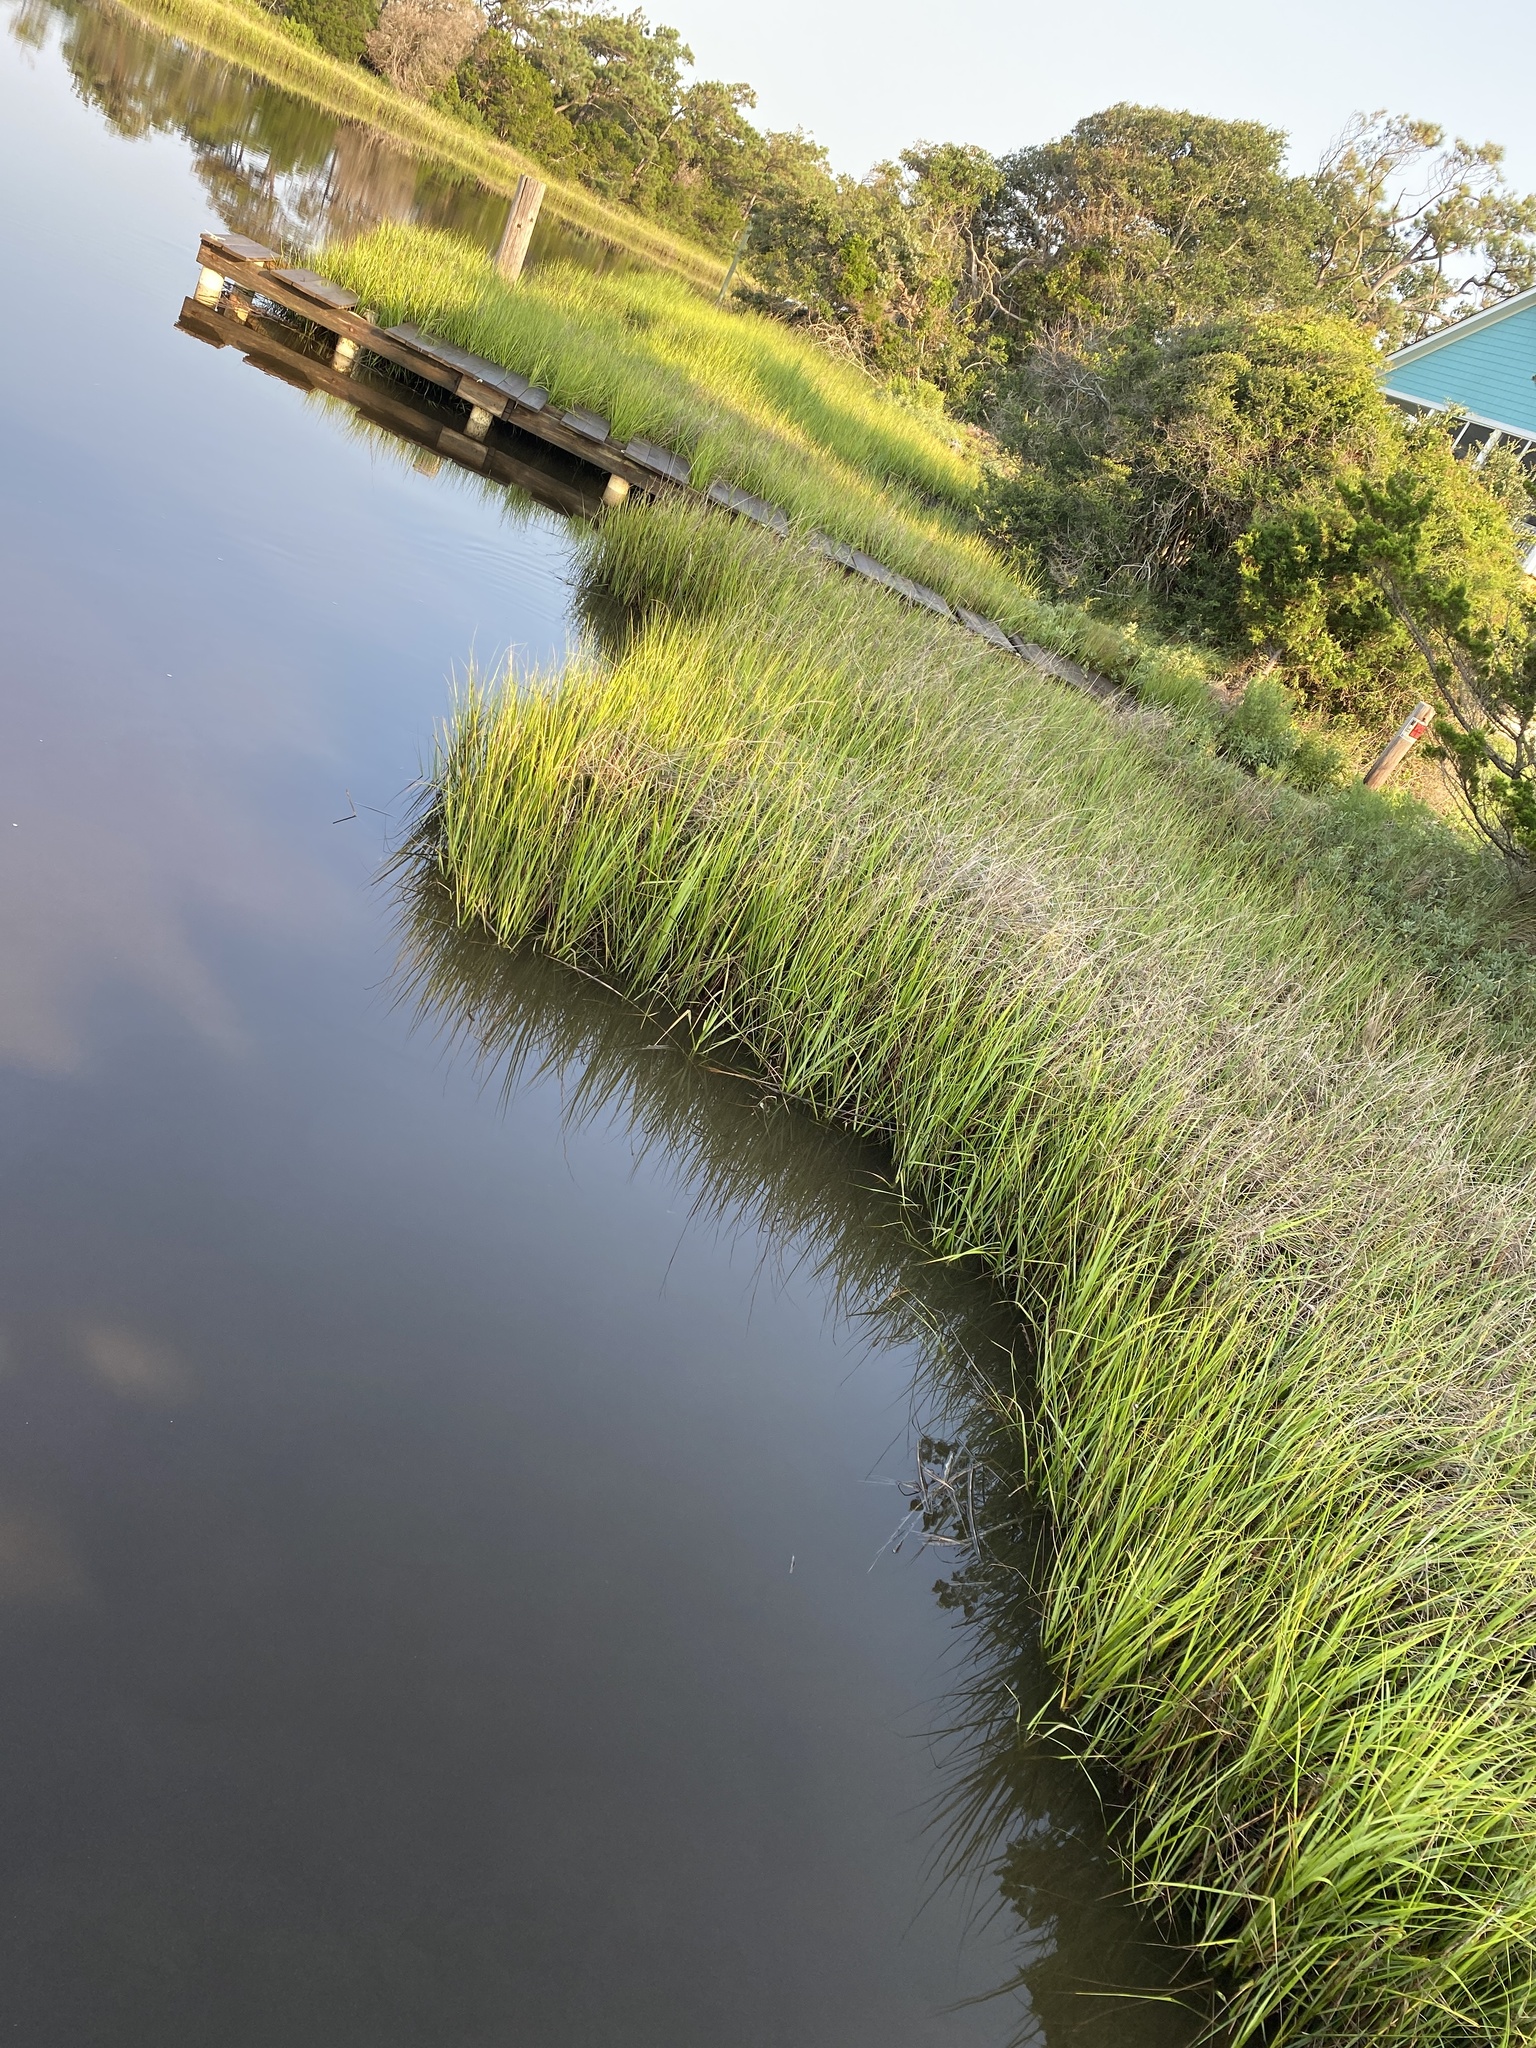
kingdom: Plantae
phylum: Tracheophyta
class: Liliopsida
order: Poales
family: Poaceae
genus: Sporobolus
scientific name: Sporobolus alterniflorus
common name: Atlantic cordgrass
